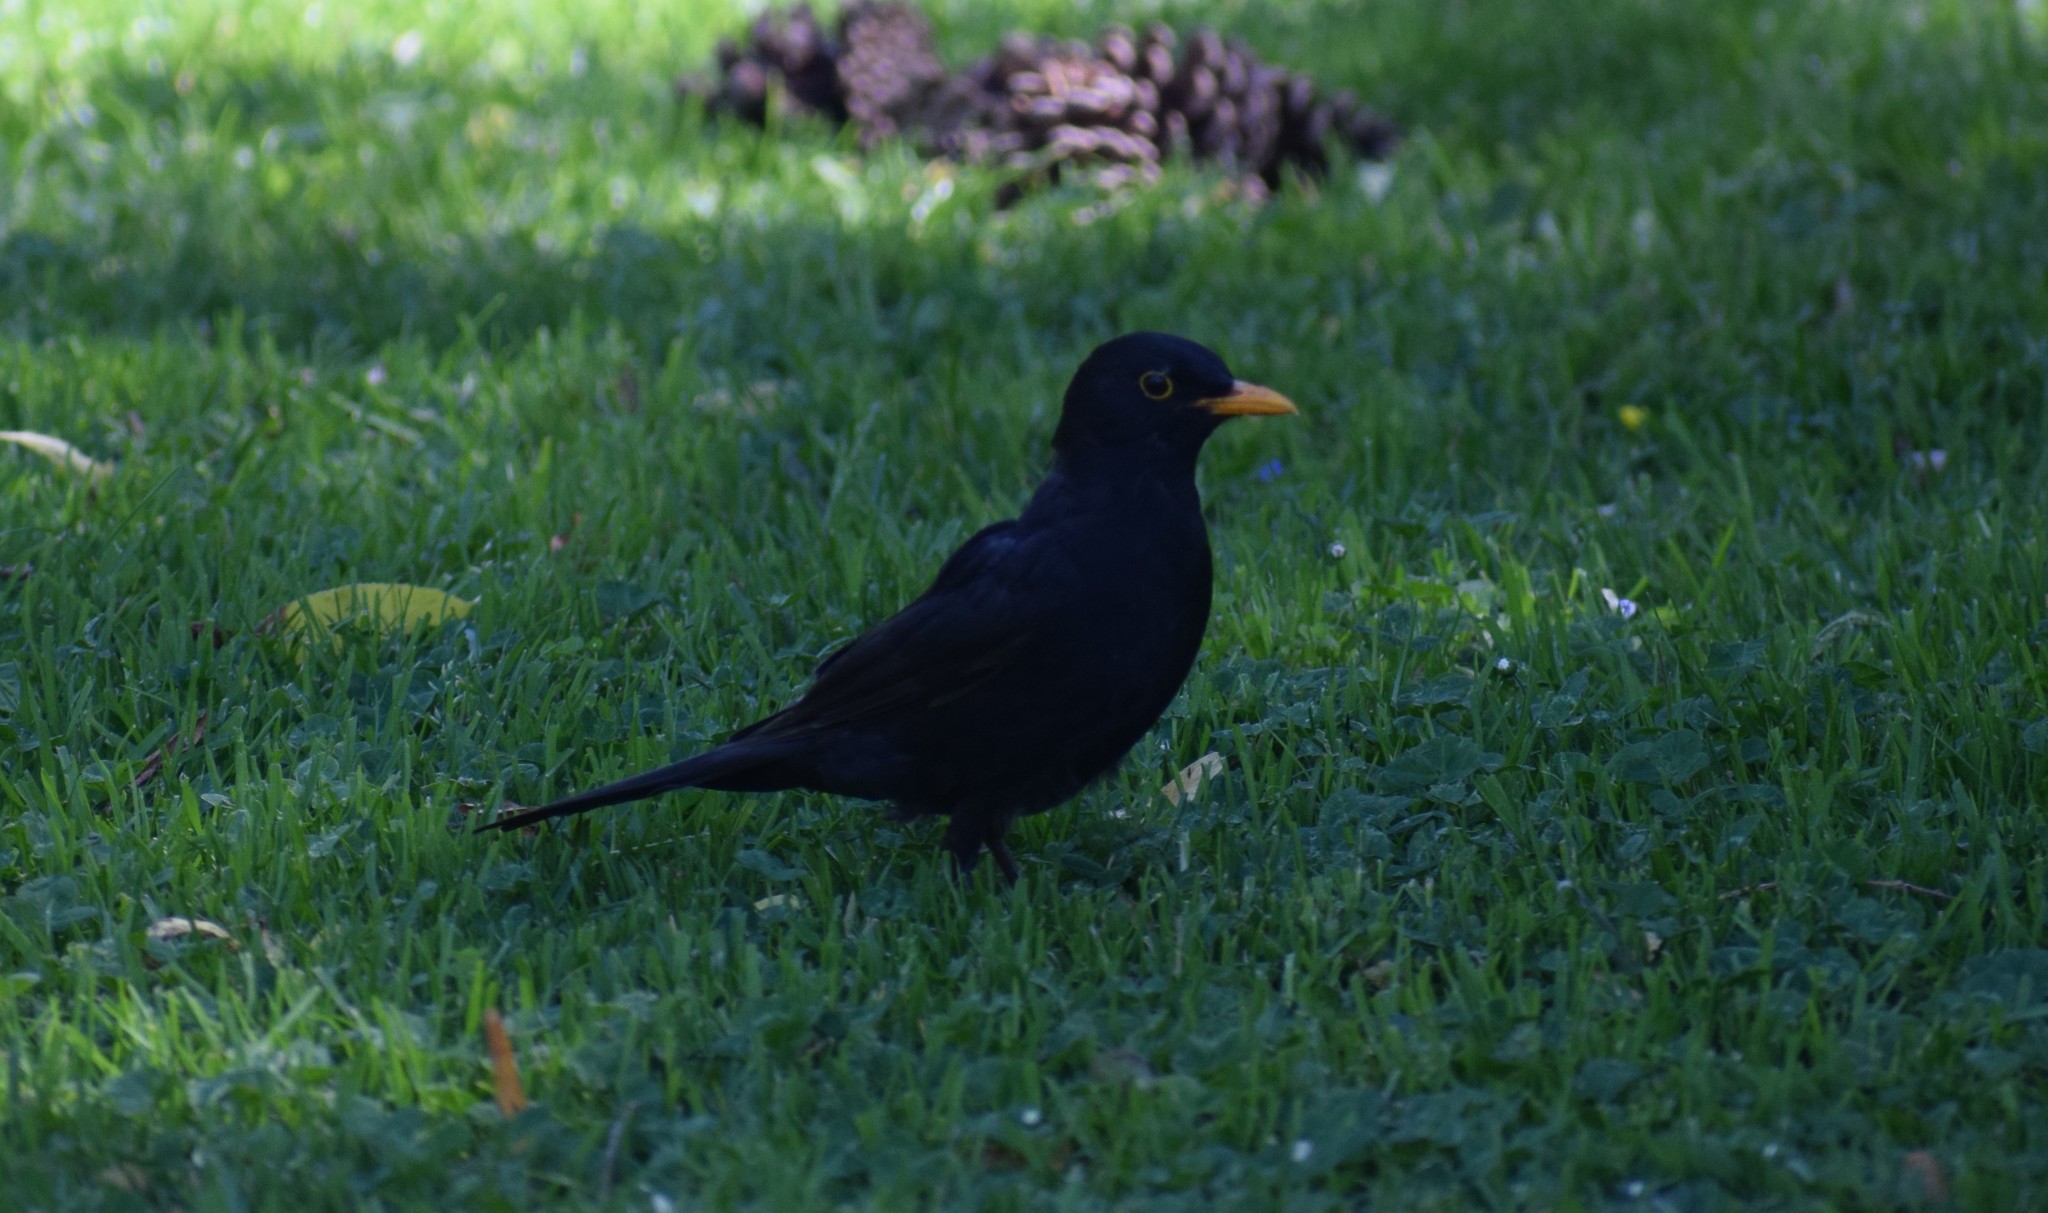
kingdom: Animalia
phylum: Chordata
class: Aves
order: Passeriformes
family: Turdidae
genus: Turdus
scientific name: Turdus merula
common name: Common blackbird
